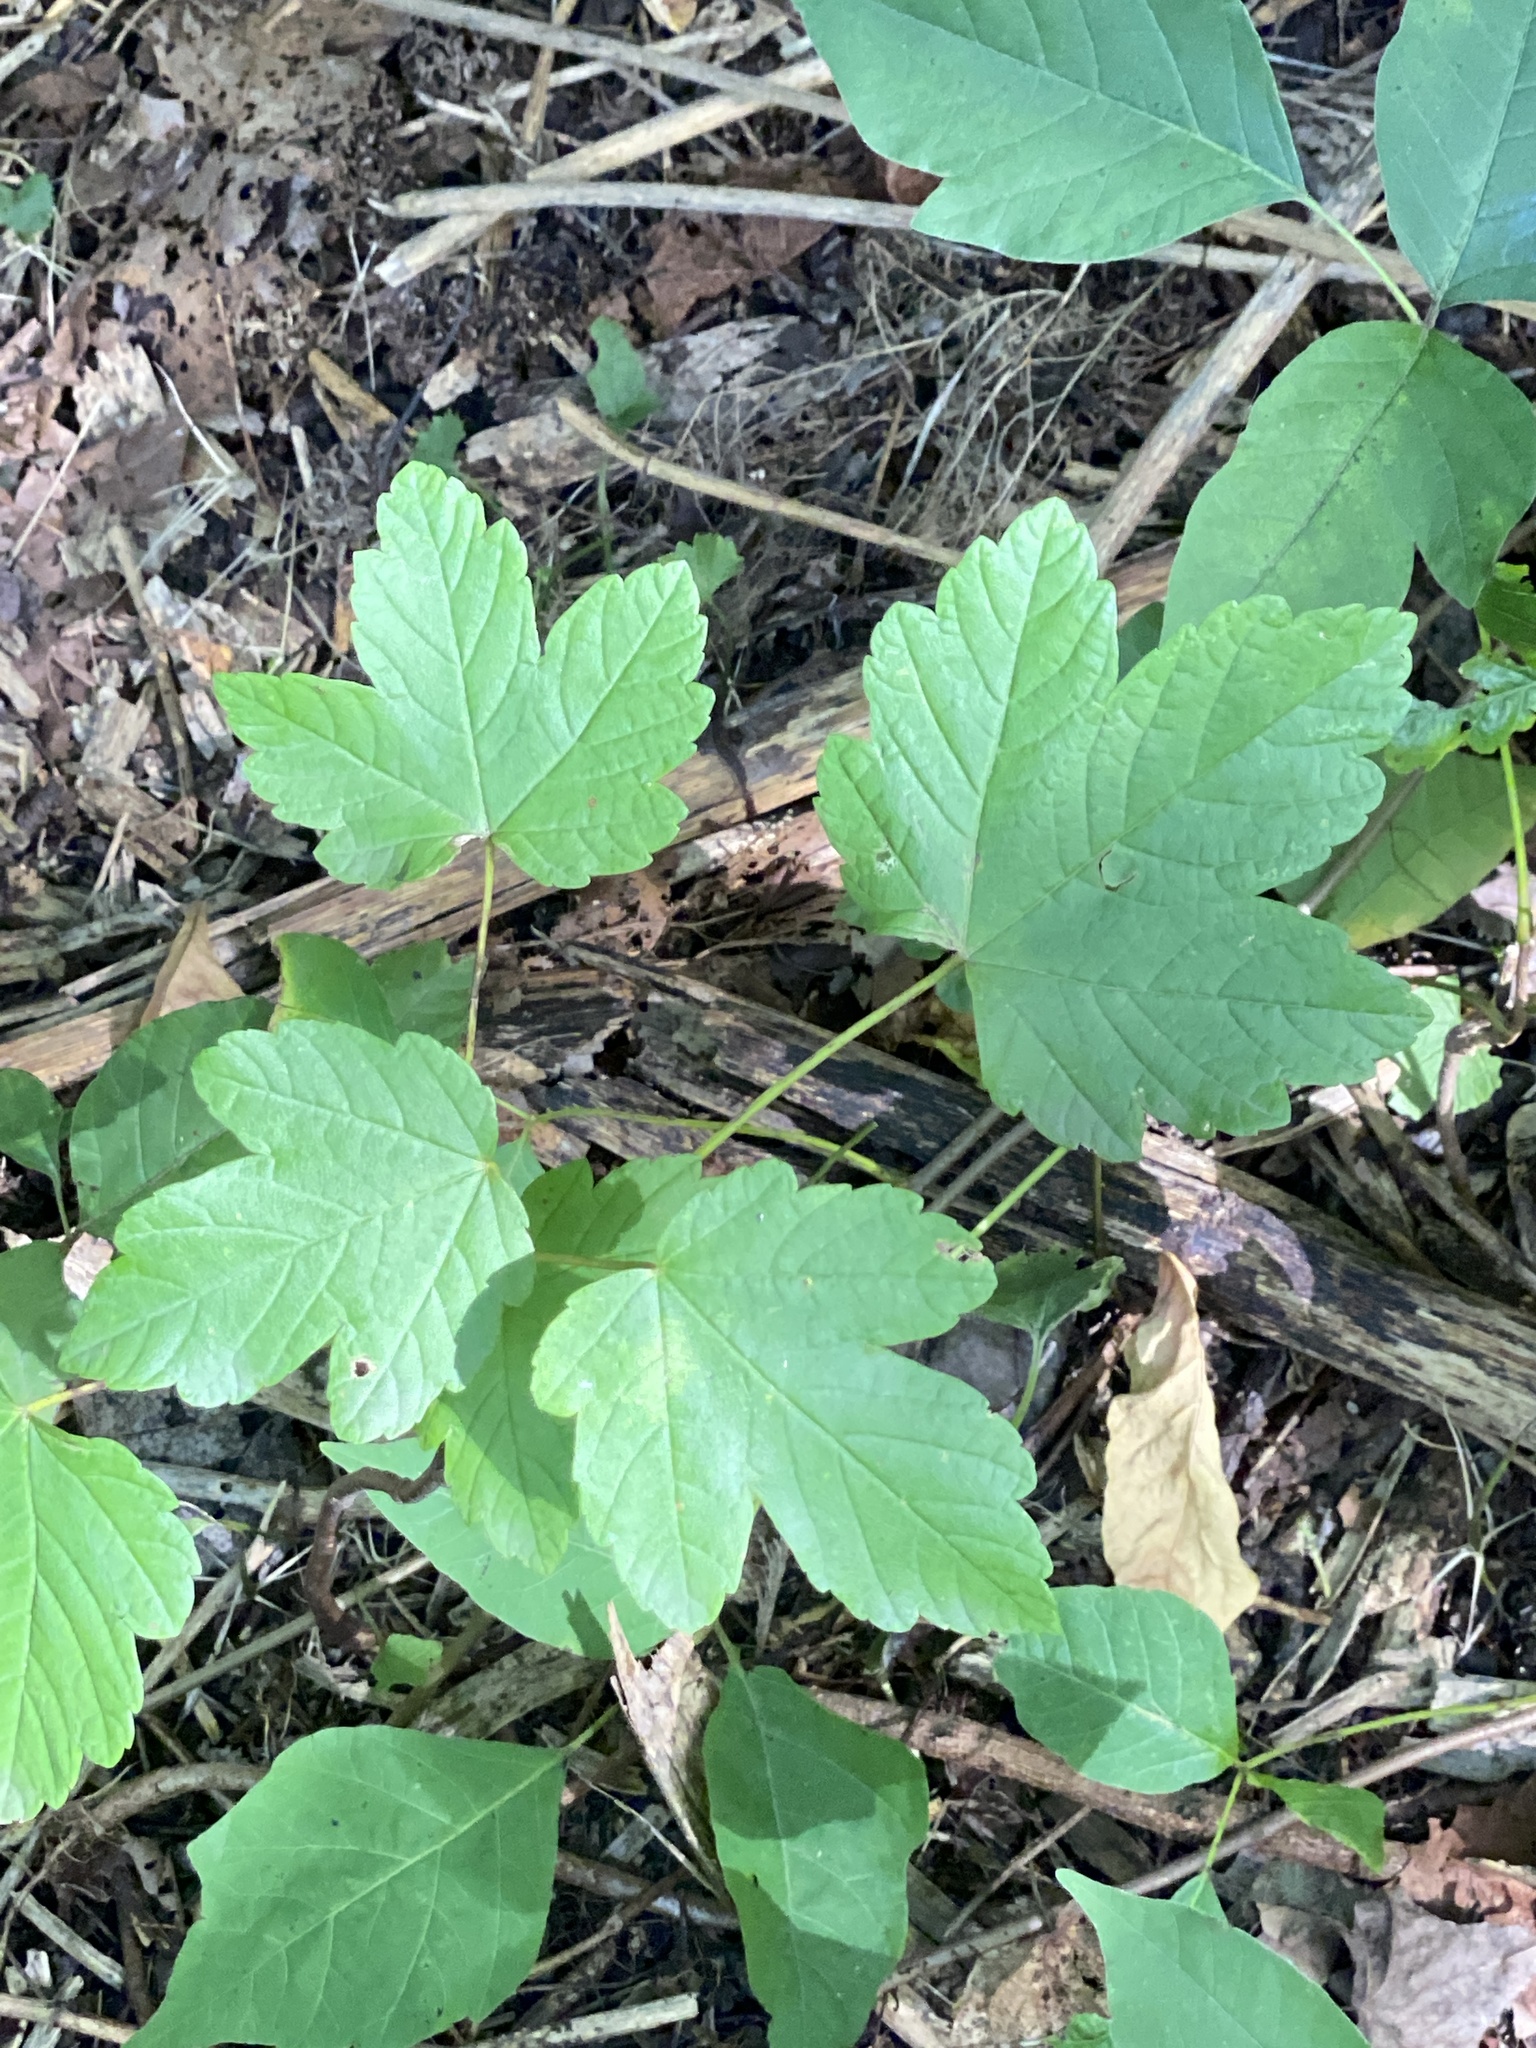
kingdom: Plantae
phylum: Tracheophyta
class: Magnoliopsida
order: Sapindales
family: Sapindaceae
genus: Acer
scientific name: Acer pseudoplatanus
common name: Sycamore
